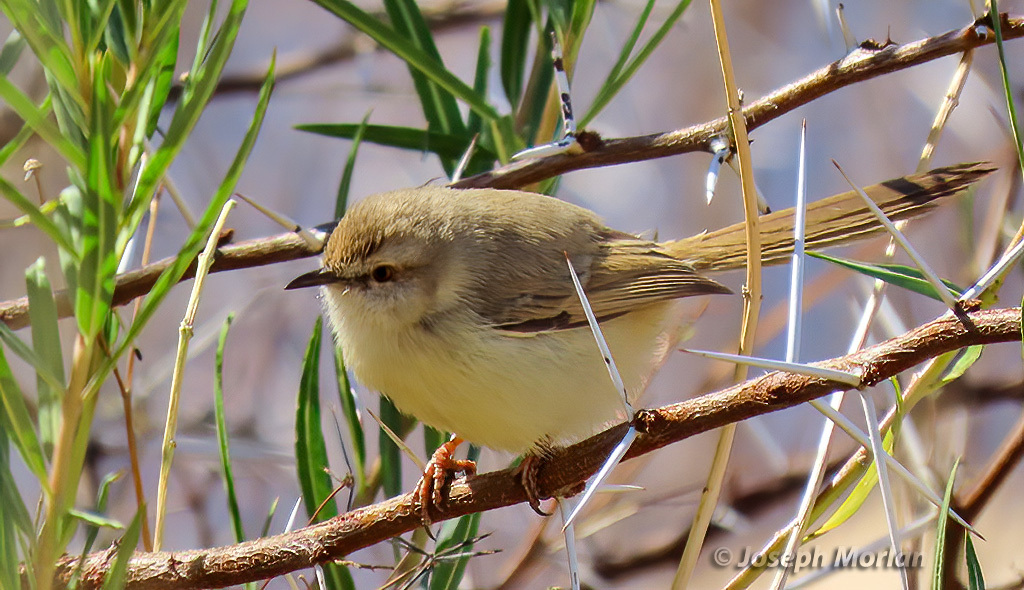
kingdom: Animalia
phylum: Chordata
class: Aves
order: Passeriformes
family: Cisticolidae
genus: Prinia
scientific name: Prinia flavicans
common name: Black-chested prinia
